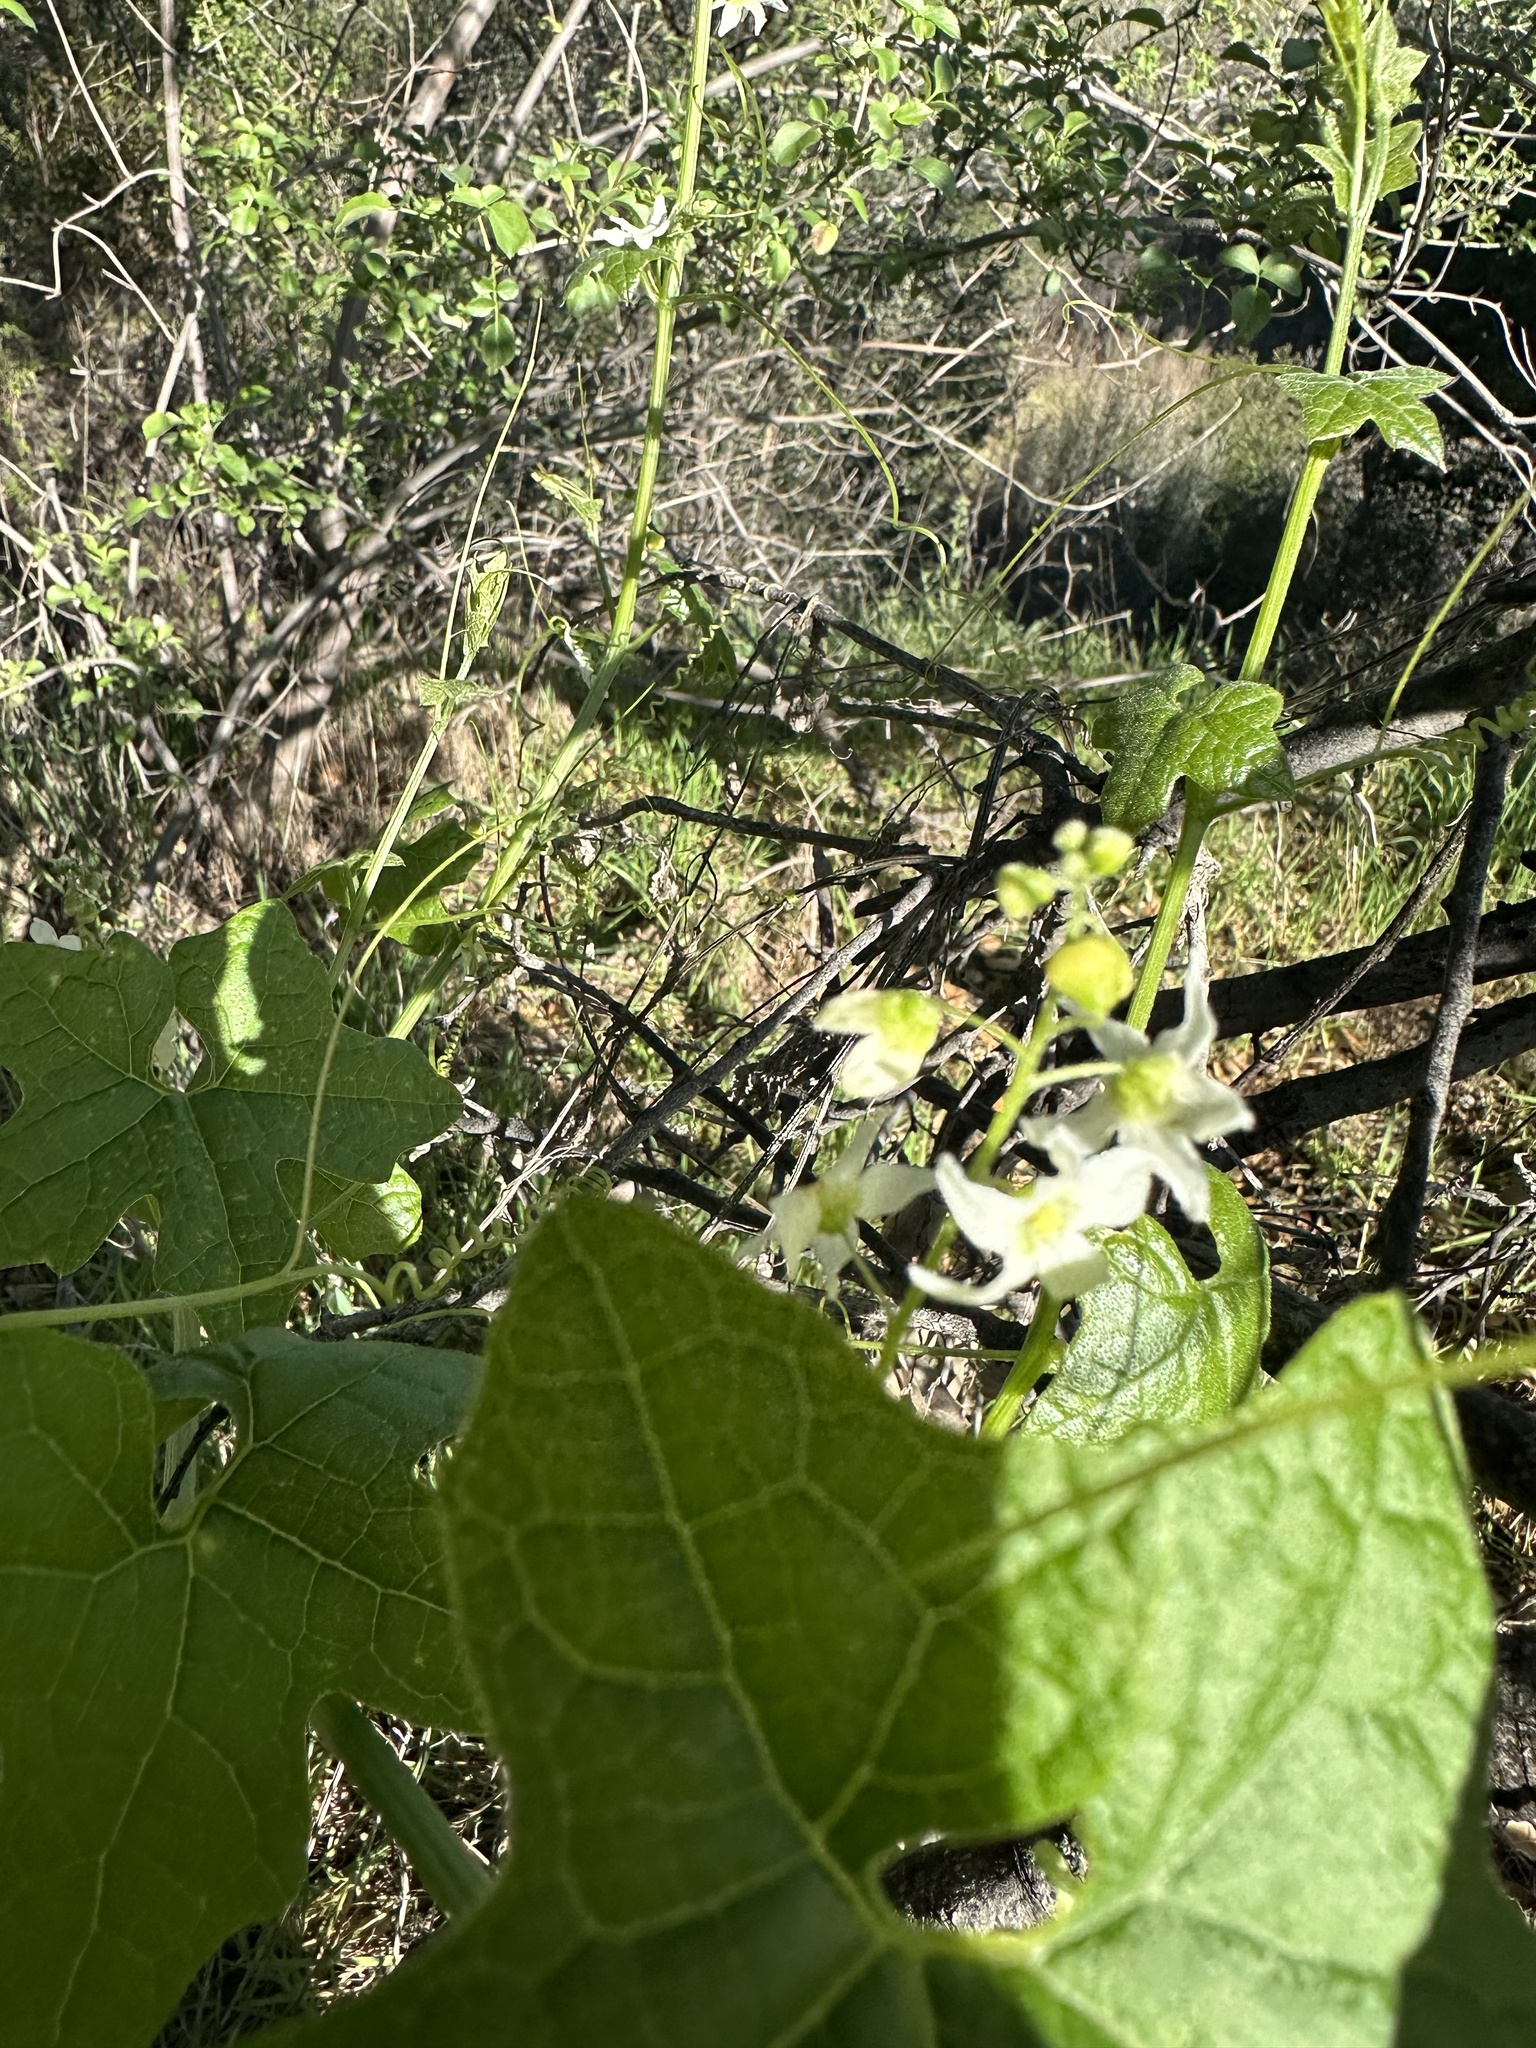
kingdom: Plantae
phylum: Tracheophyta
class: Magnoliopsida
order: Cucurbitales
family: Cucurbitaceae
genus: Marah
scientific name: Marah macrocarpa
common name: Cucamonga manroot
